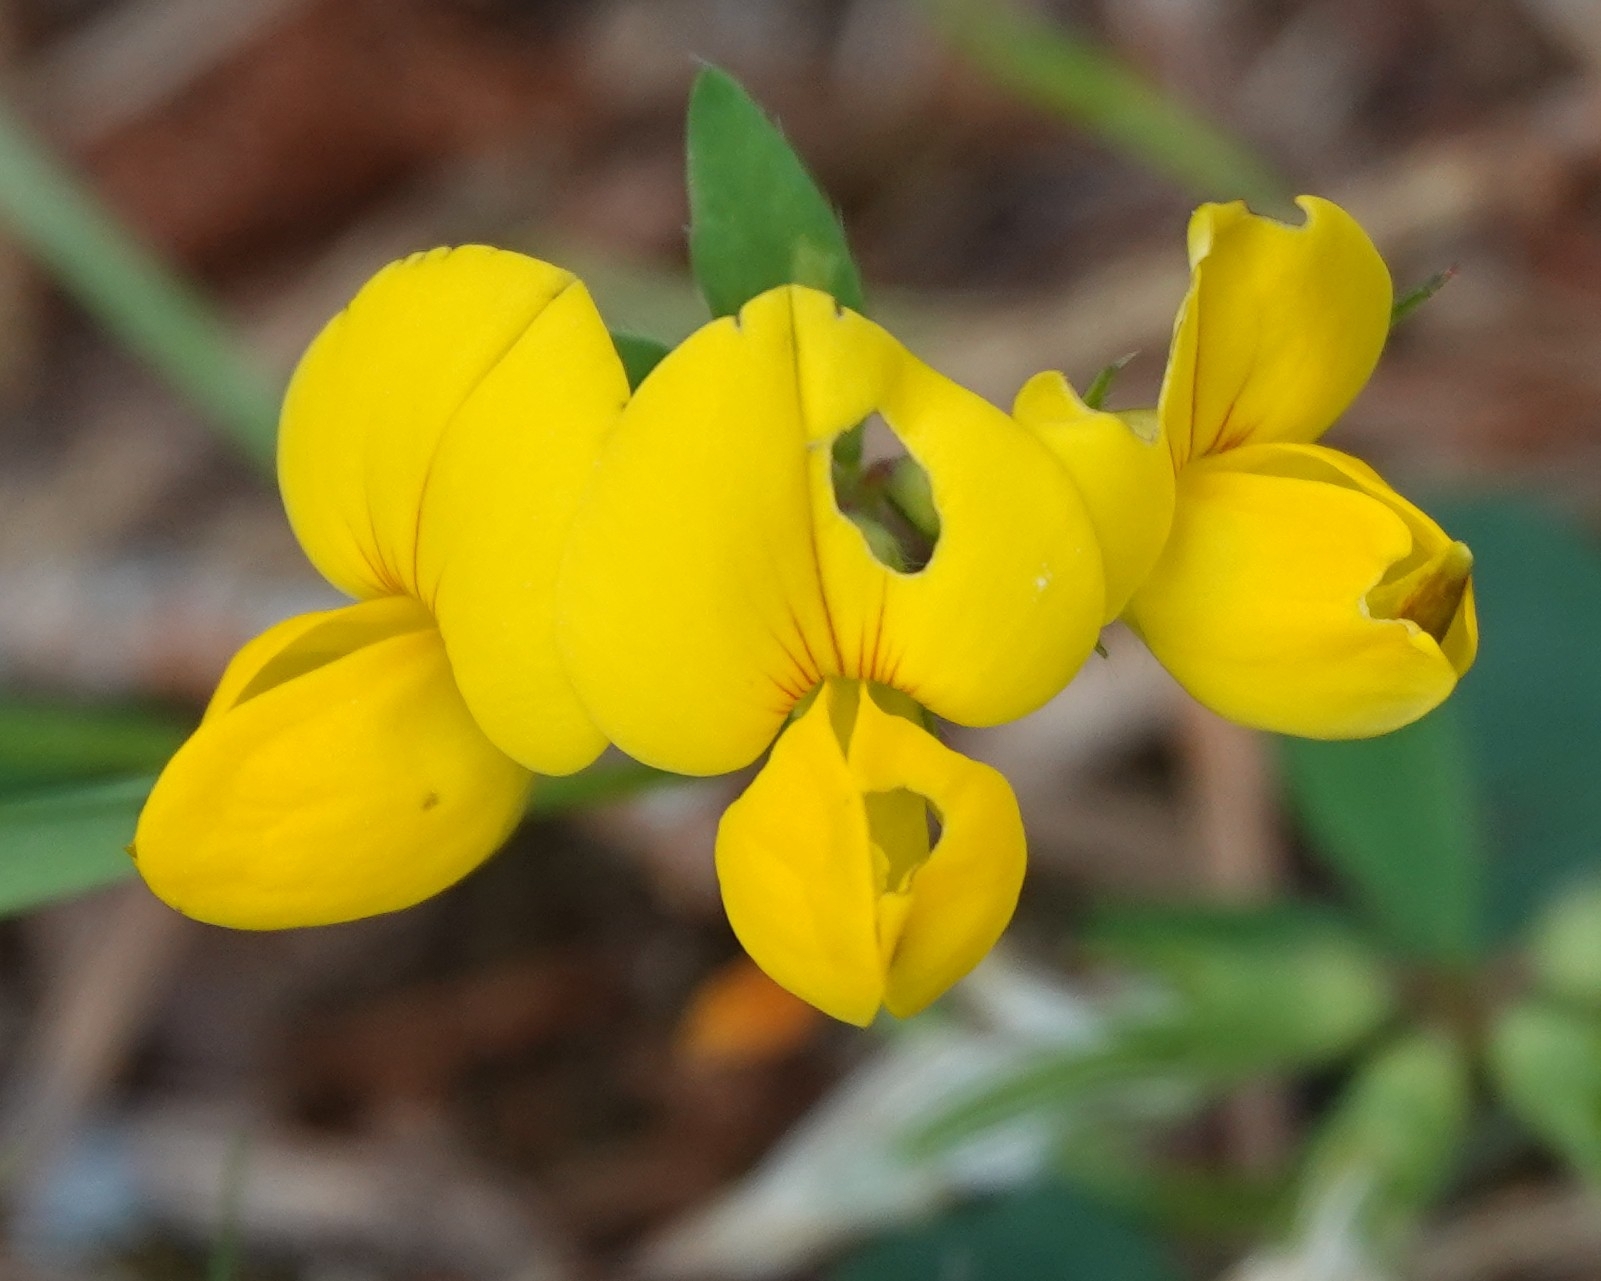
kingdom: Plantae
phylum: Tracheophyta
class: Magnoliopsida
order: Fabales
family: Fabaceae
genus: Lotus
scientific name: Lotus corniculatus
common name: Common bird's-foot-trefoil
